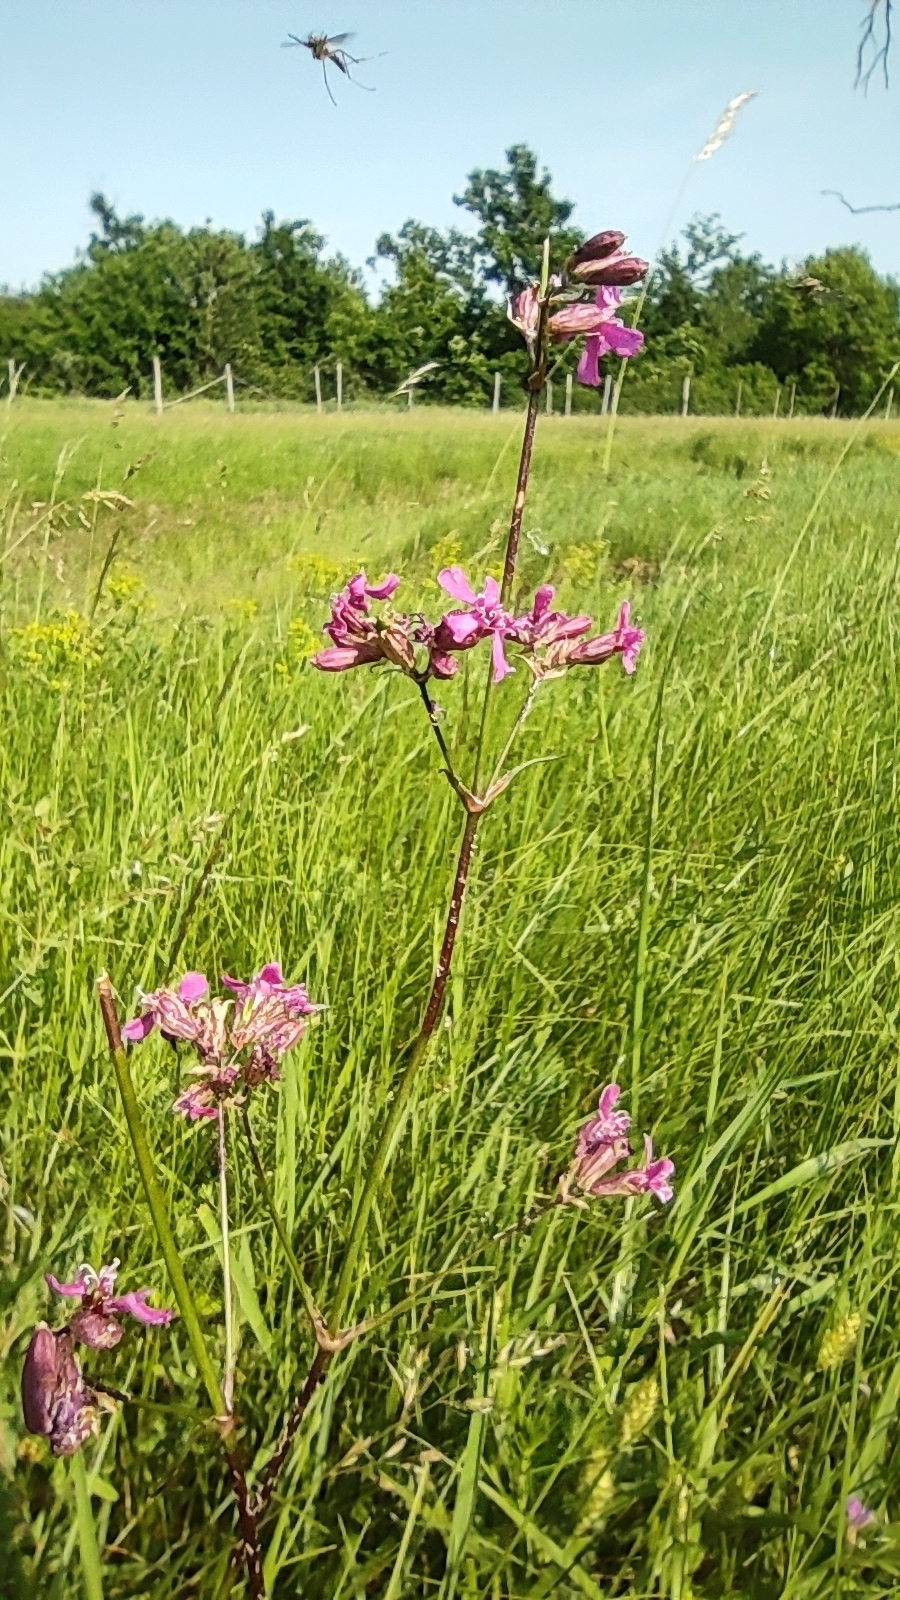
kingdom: Plantae
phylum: Tracheophyta
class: Magnoliopsida
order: Caryophyllales
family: Caryophyllaceae
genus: Viscaria
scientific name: Viscaria vulgaris
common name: Clammy campion
